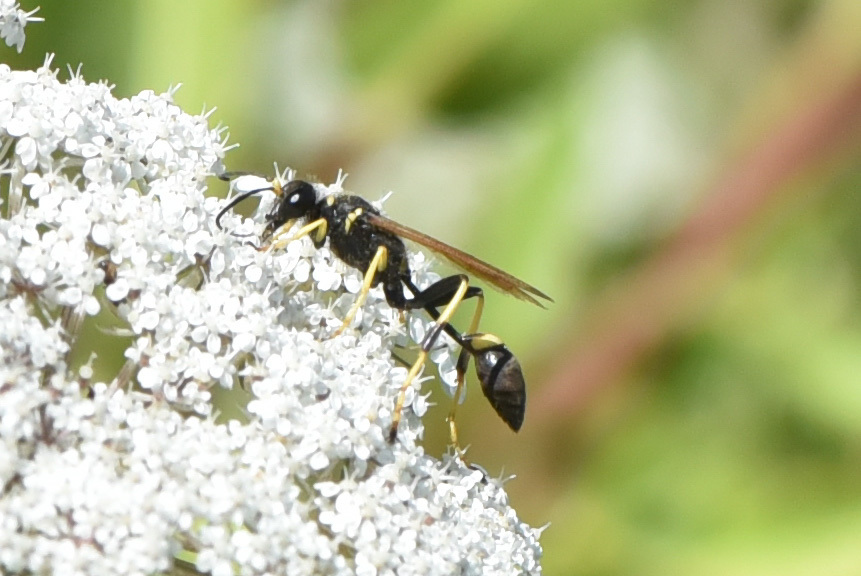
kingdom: Animalia
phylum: Arthropoda
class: Insecta
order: Hymenoptera
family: Sphecidae
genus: Sceliphron
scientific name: Sceliphron caementarium
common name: Mud dauber
